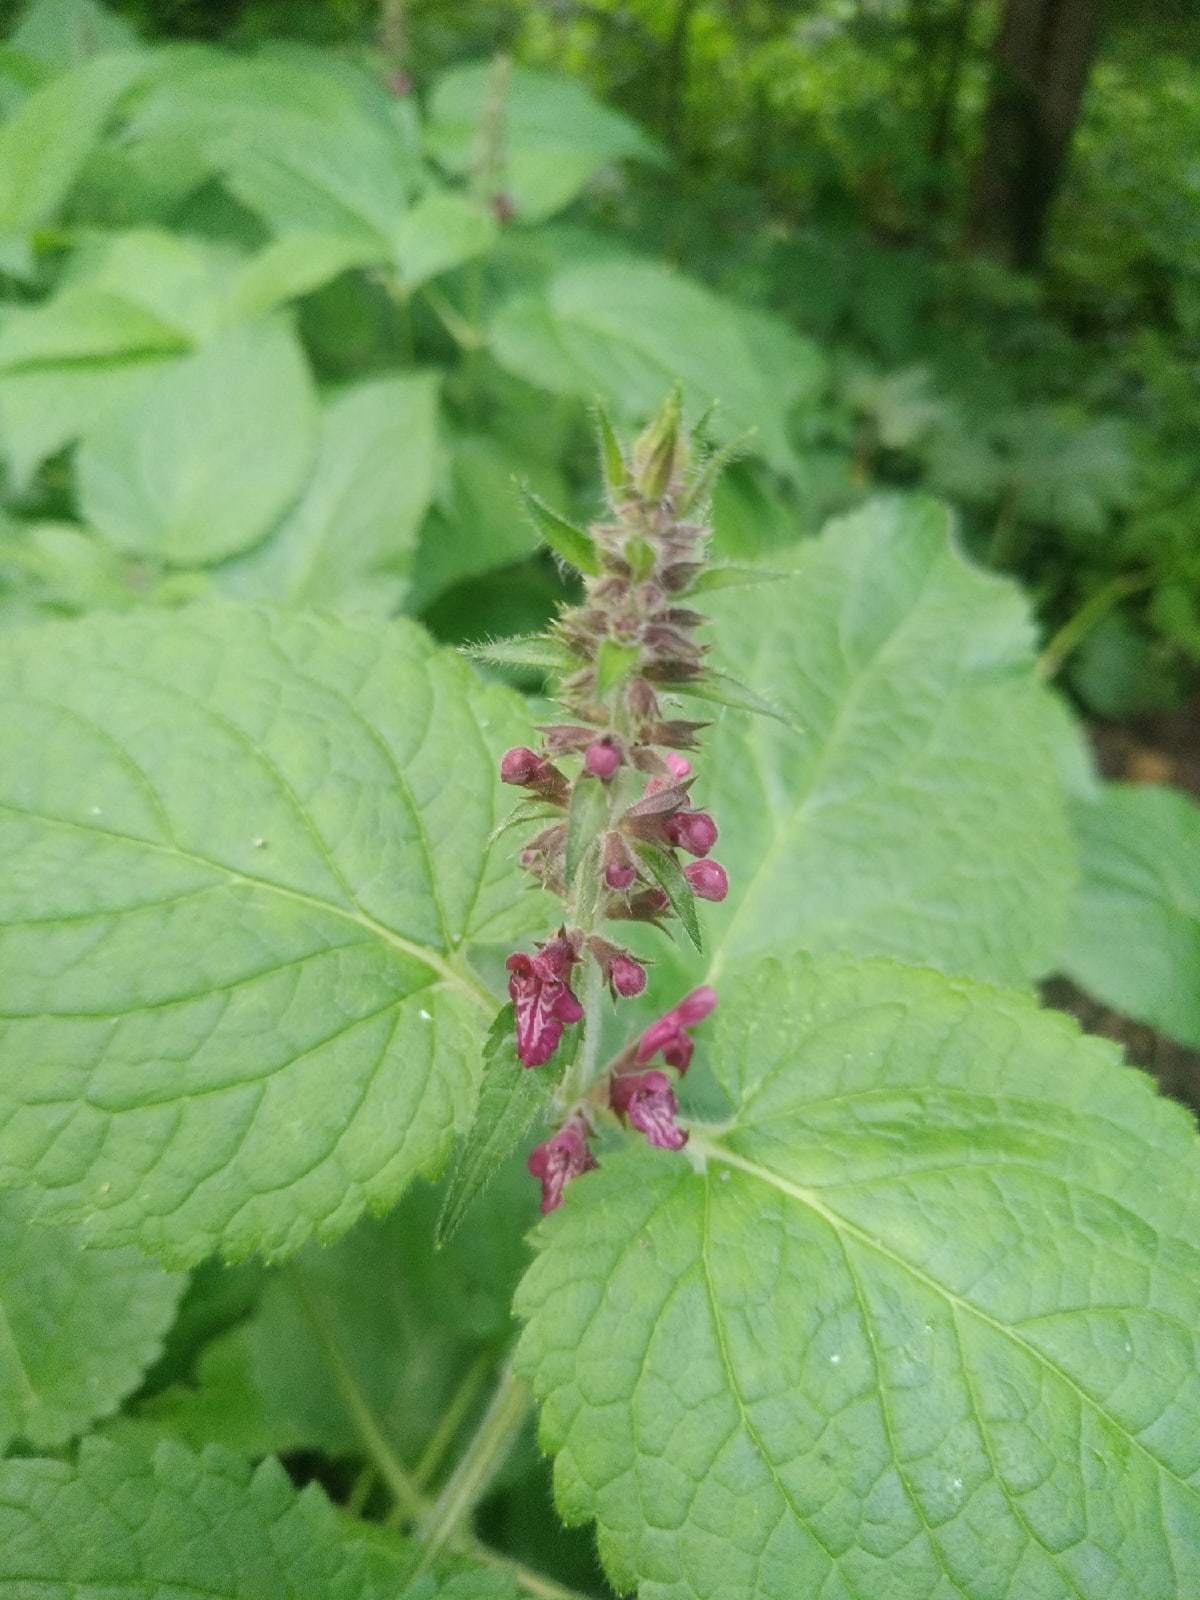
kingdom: Plantae
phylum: Tracheophyta
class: Magnoliopsida
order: Lamiales
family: Lamiaceae
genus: Stachys
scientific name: Stachys sylvatica
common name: Hedge woundwort
